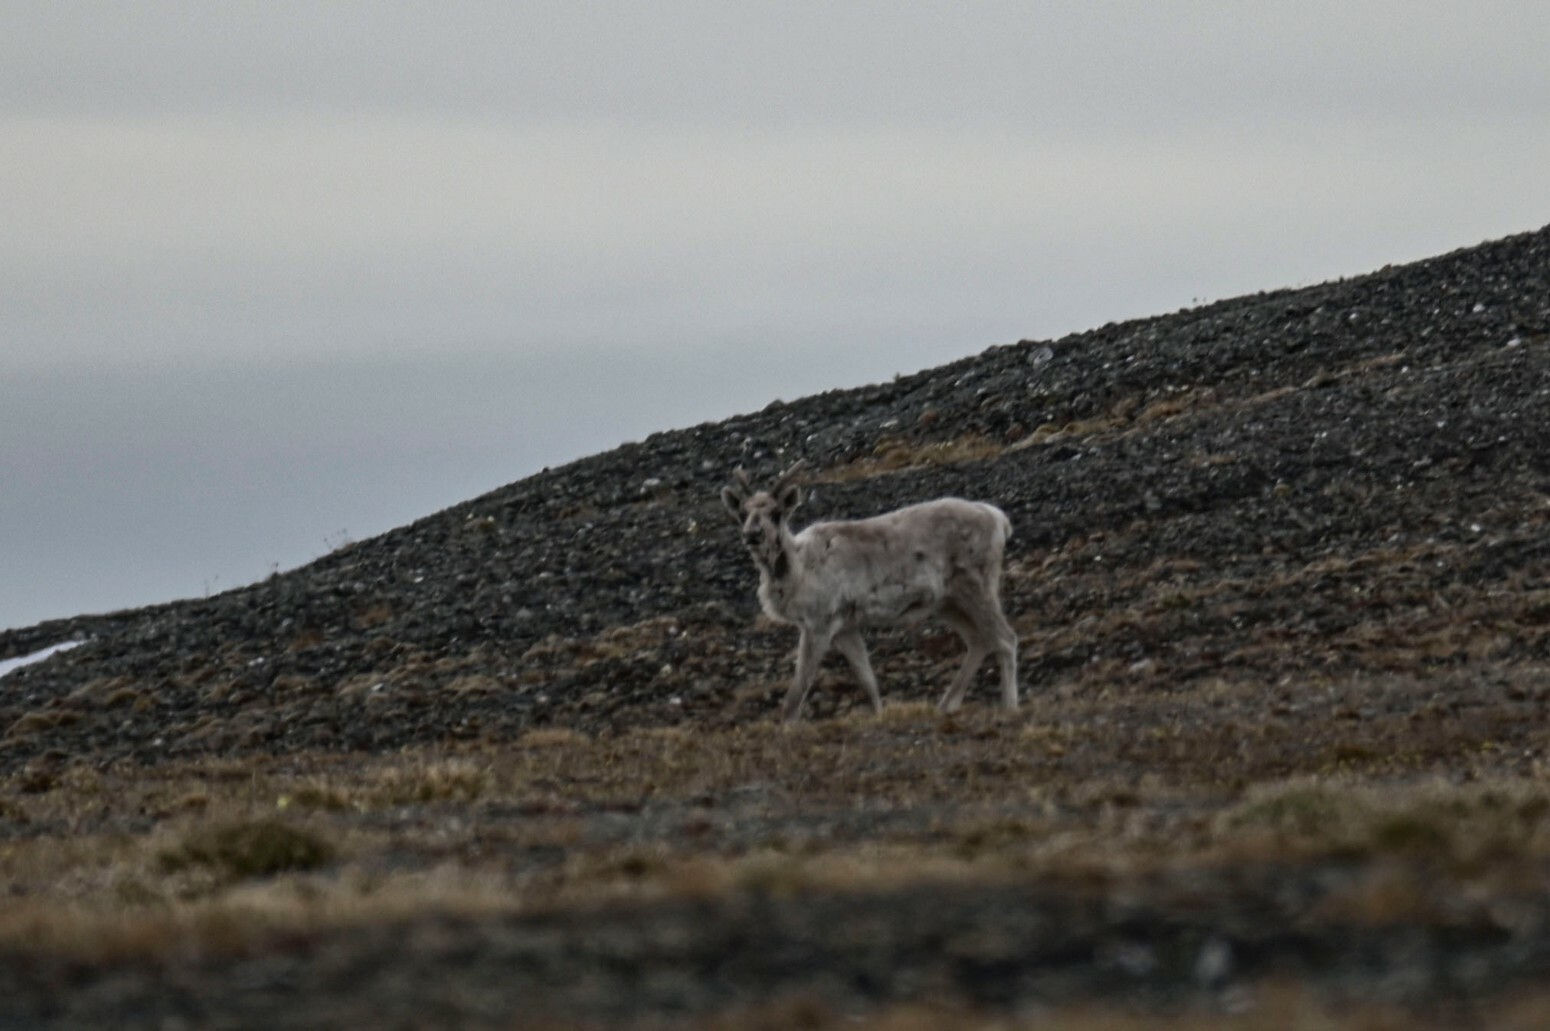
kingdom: Animalia
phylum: Chordata
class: Mammalia
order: Artiodactyla
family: Cervidae
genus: Rangifer
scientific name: Rangifer tarandus
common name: Reindeer
